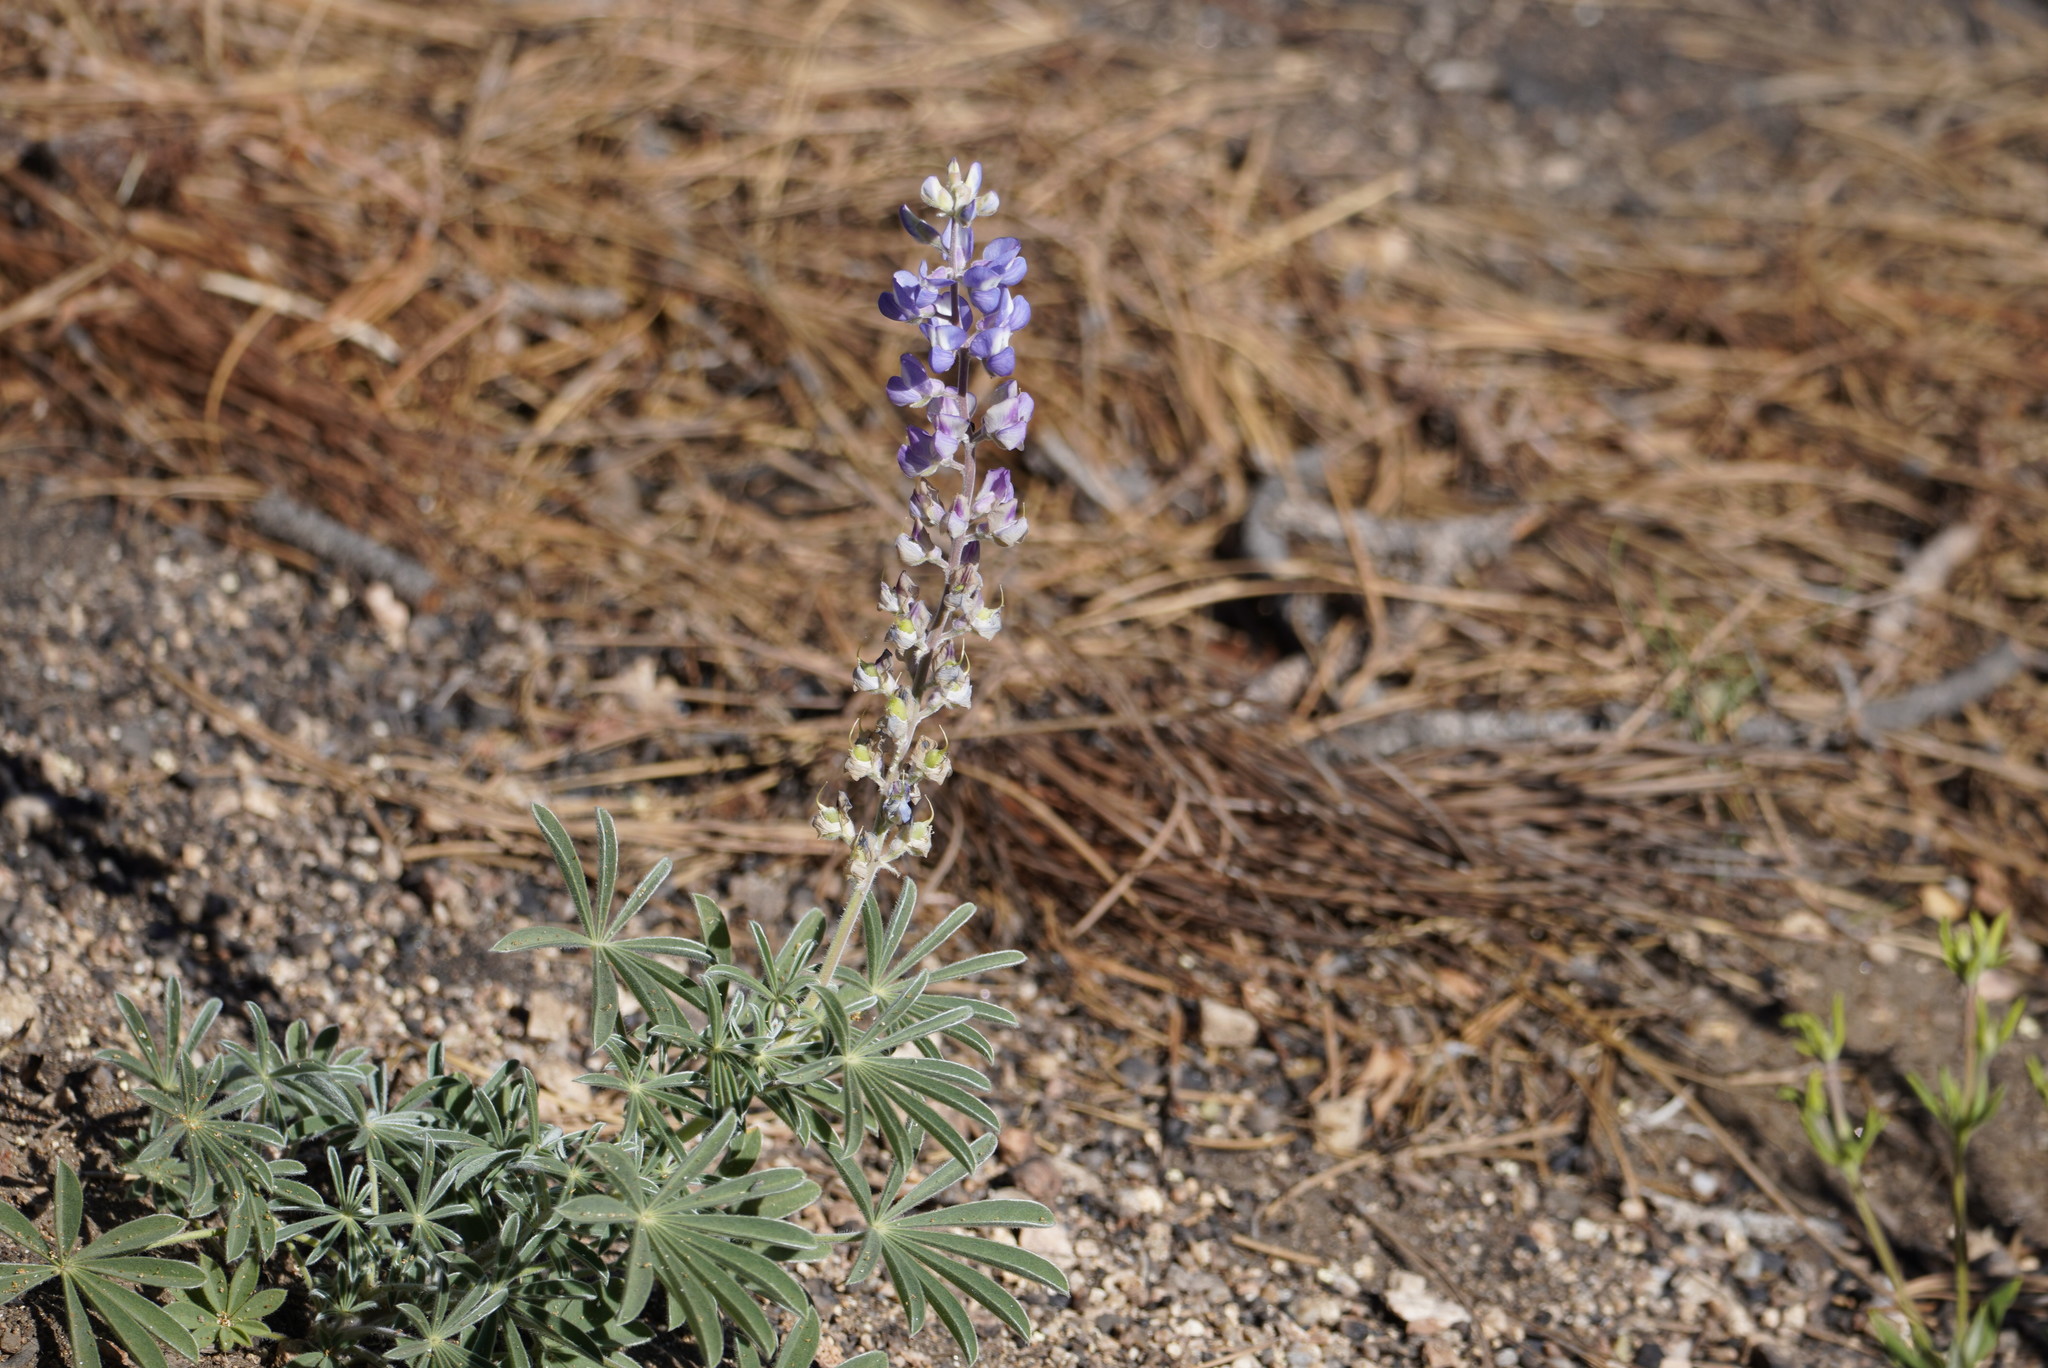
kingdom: Plantae
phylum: Tracheophyta
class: Magnoliopsida
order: Fabales
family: Fabaceae
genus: Lupinus
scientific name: Lupinus argenteus
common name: Silvery lupine
